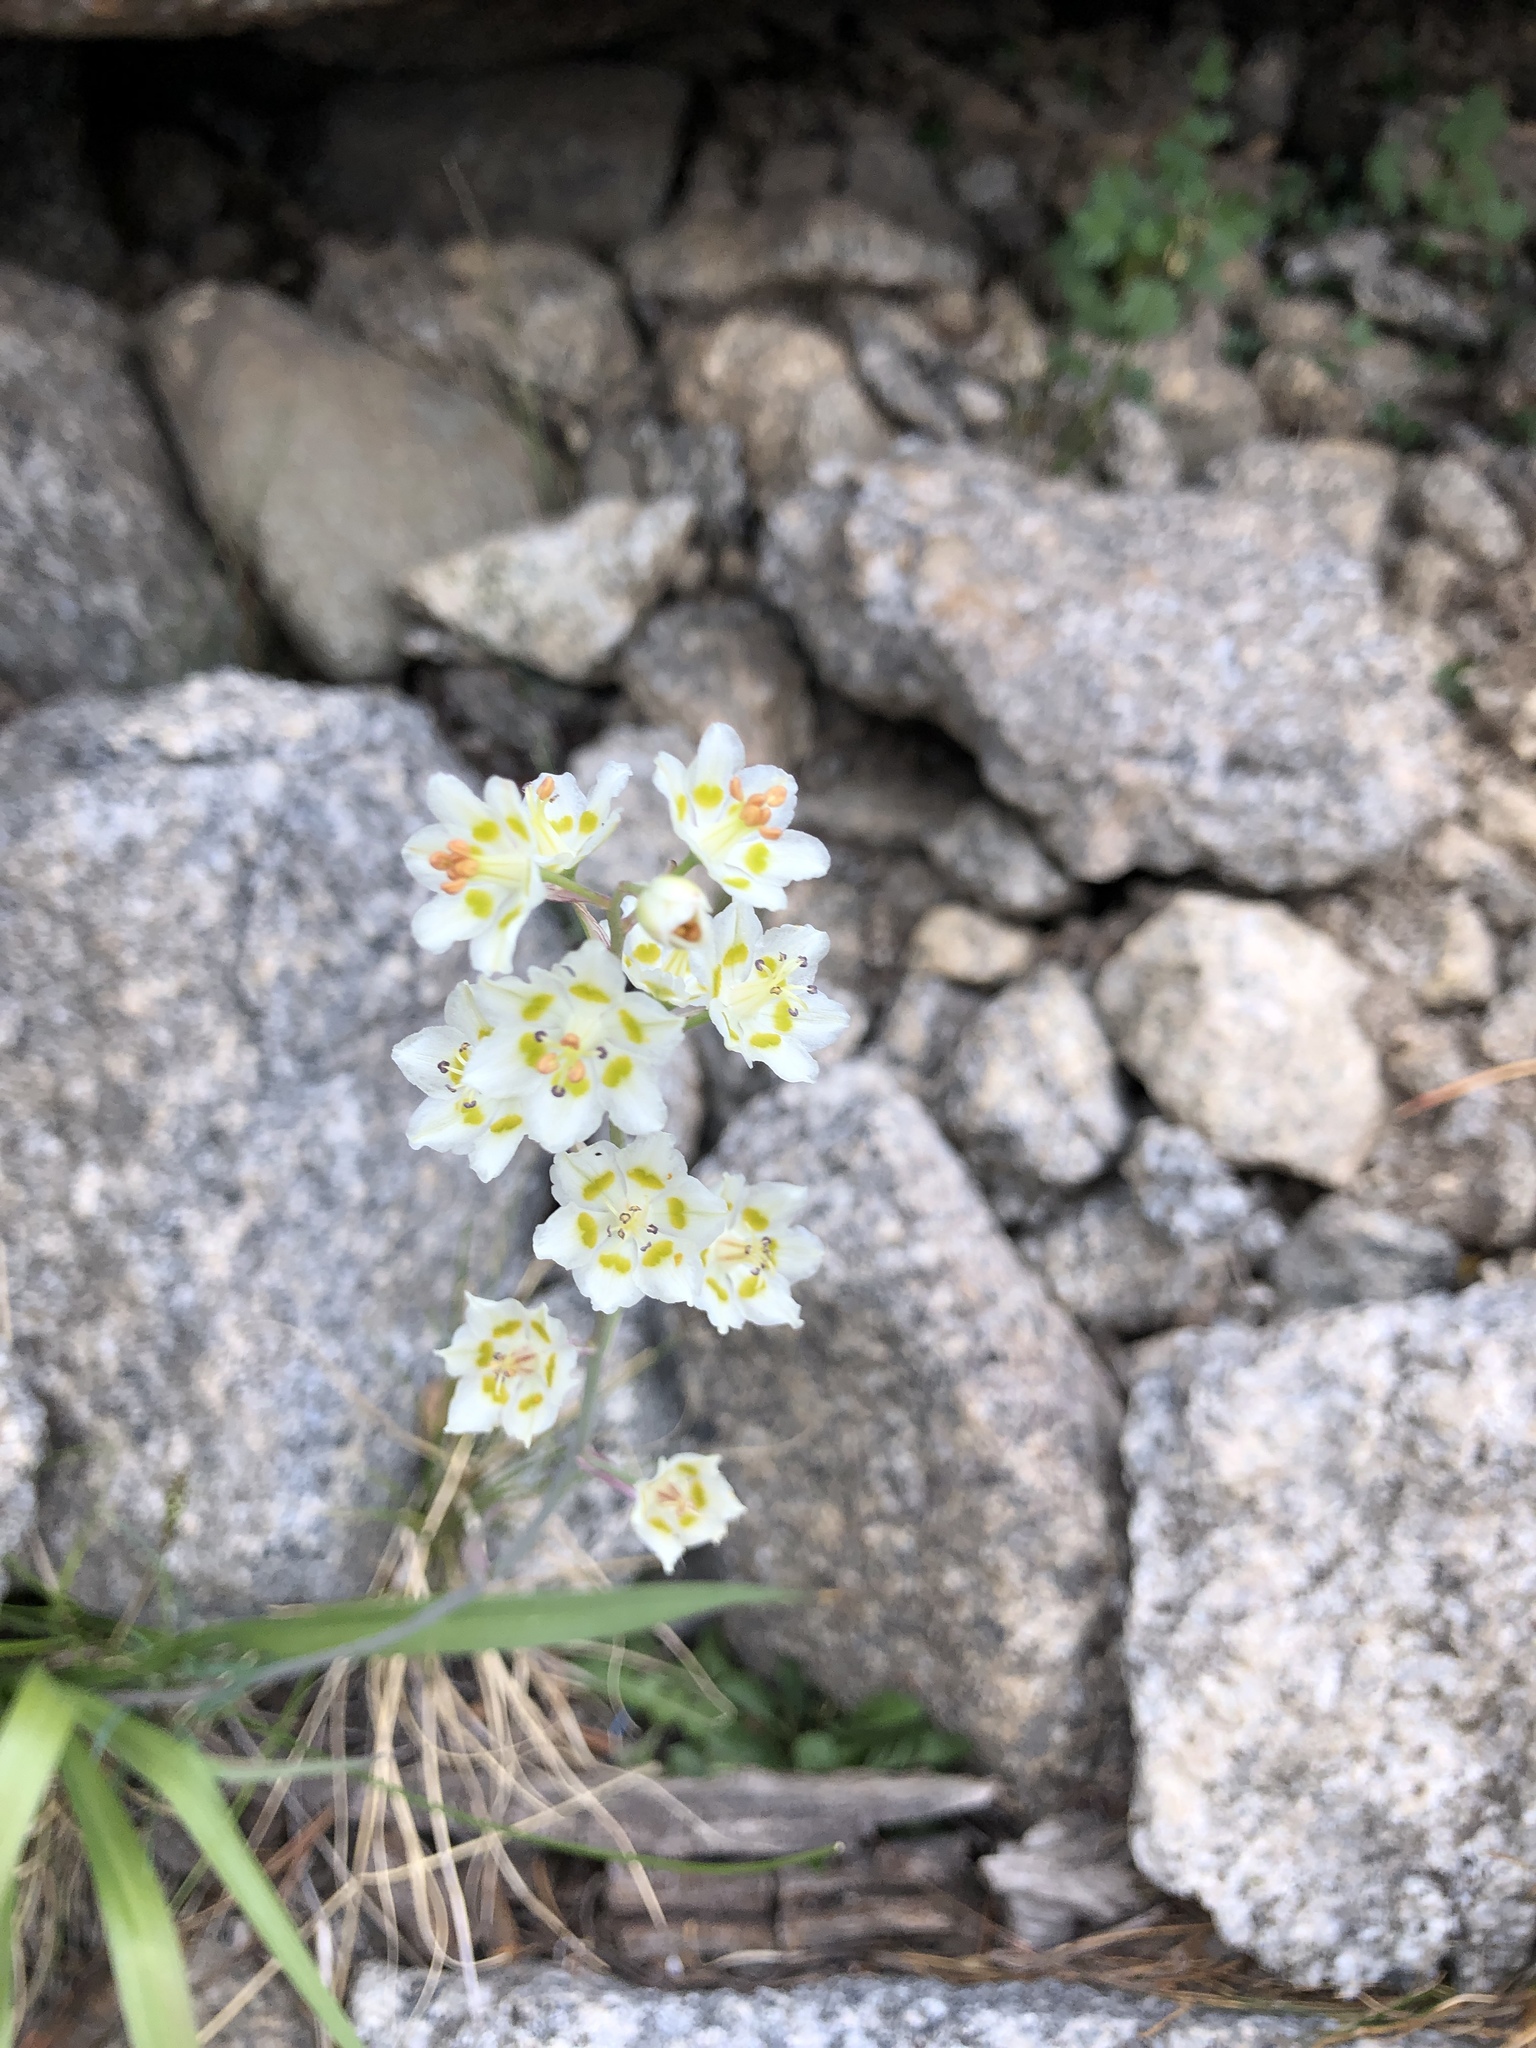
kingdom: Plantae
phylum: Tracheophyta
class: Liliopsida
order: Liliales
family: Melanthiaceae
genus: Anticlea
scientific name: Anticlea elegans
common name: Mountain death camas
